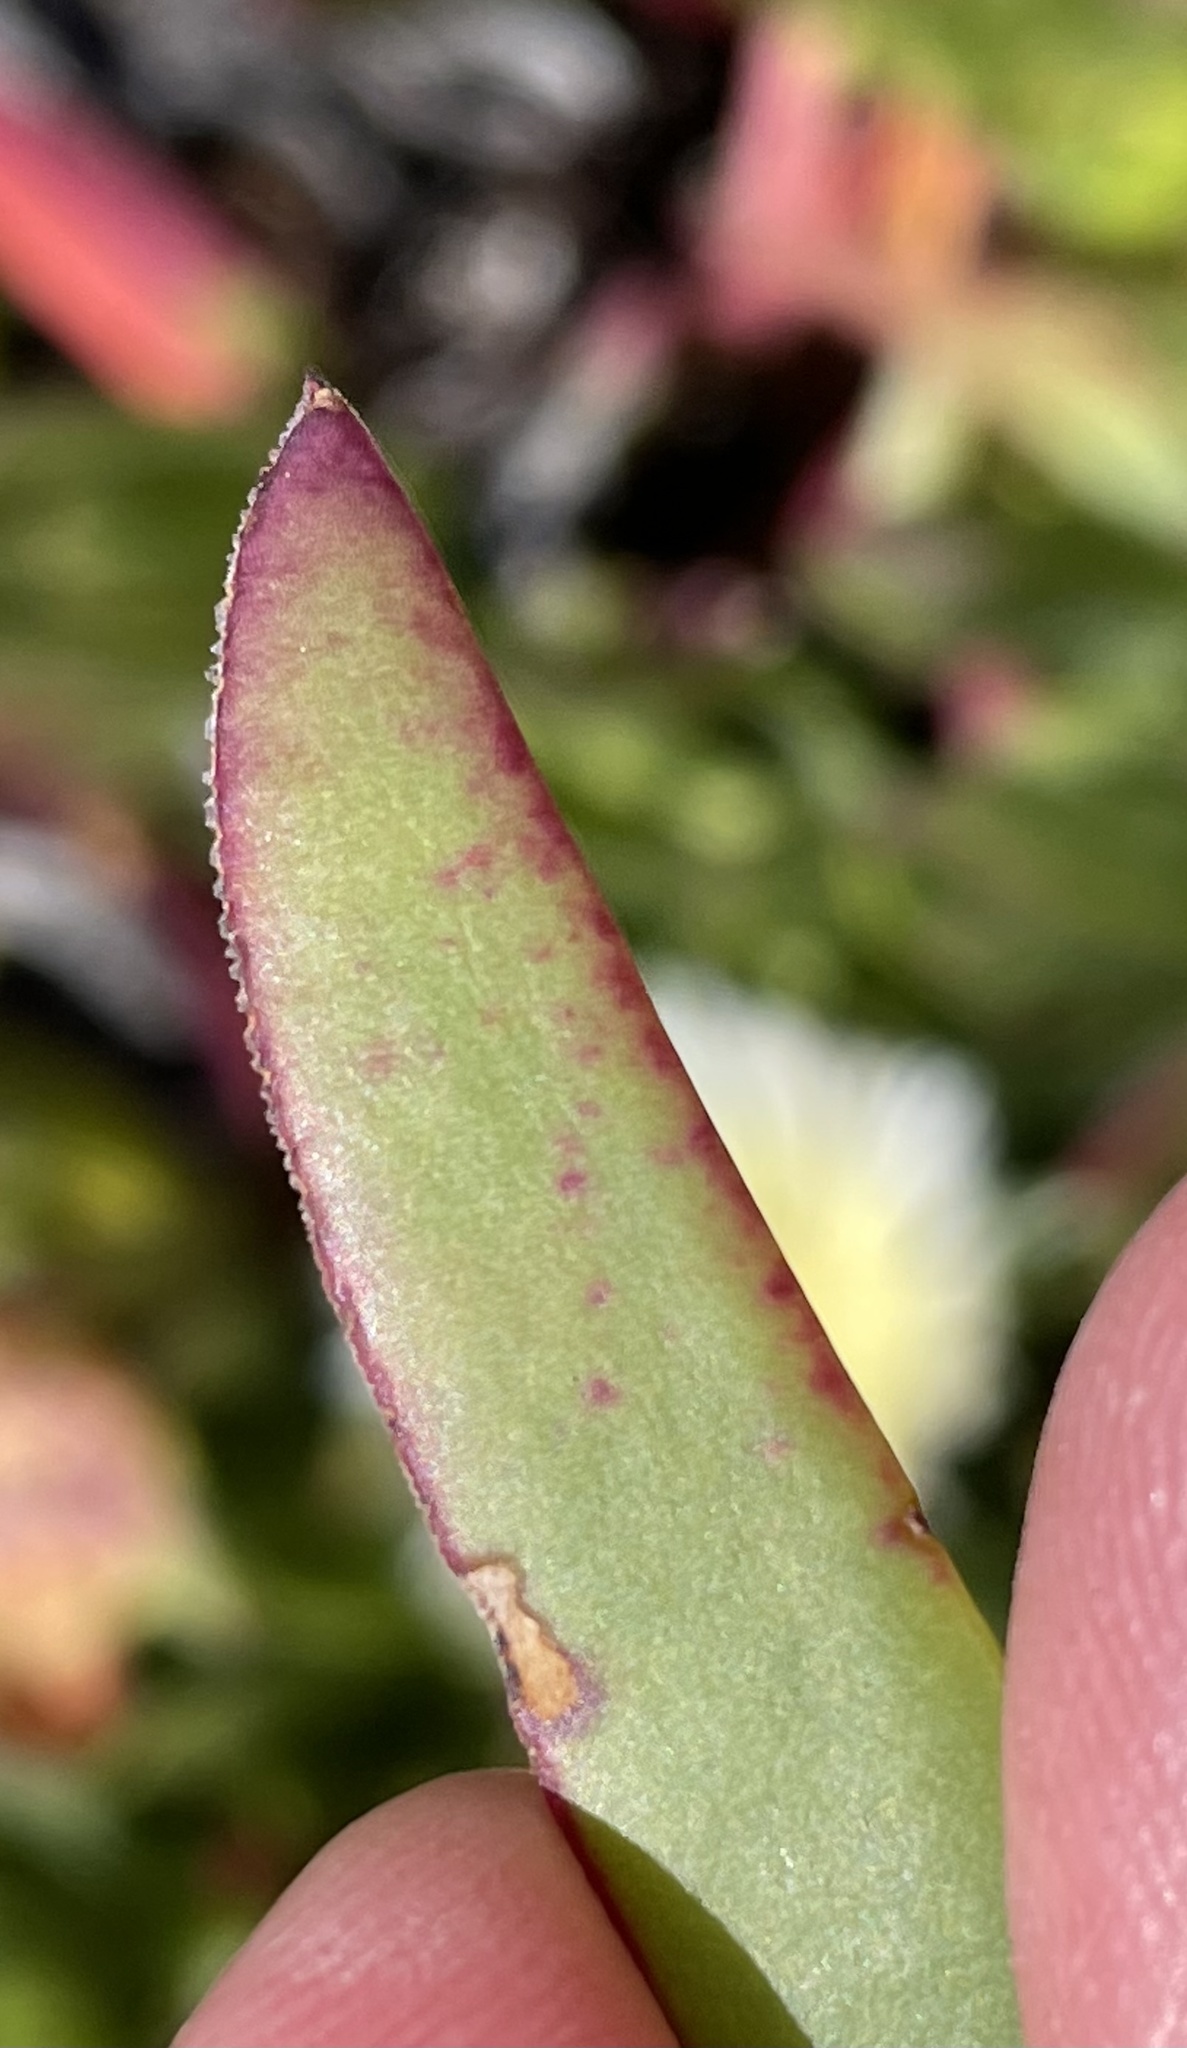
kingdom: Plantae
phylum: Tracheophyta
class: Magnoliopsida
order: Caryophyllales
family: Aizoaceae
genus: Carpobrotus
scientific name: Carpobrotus edulis
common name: Hottentot-fig
